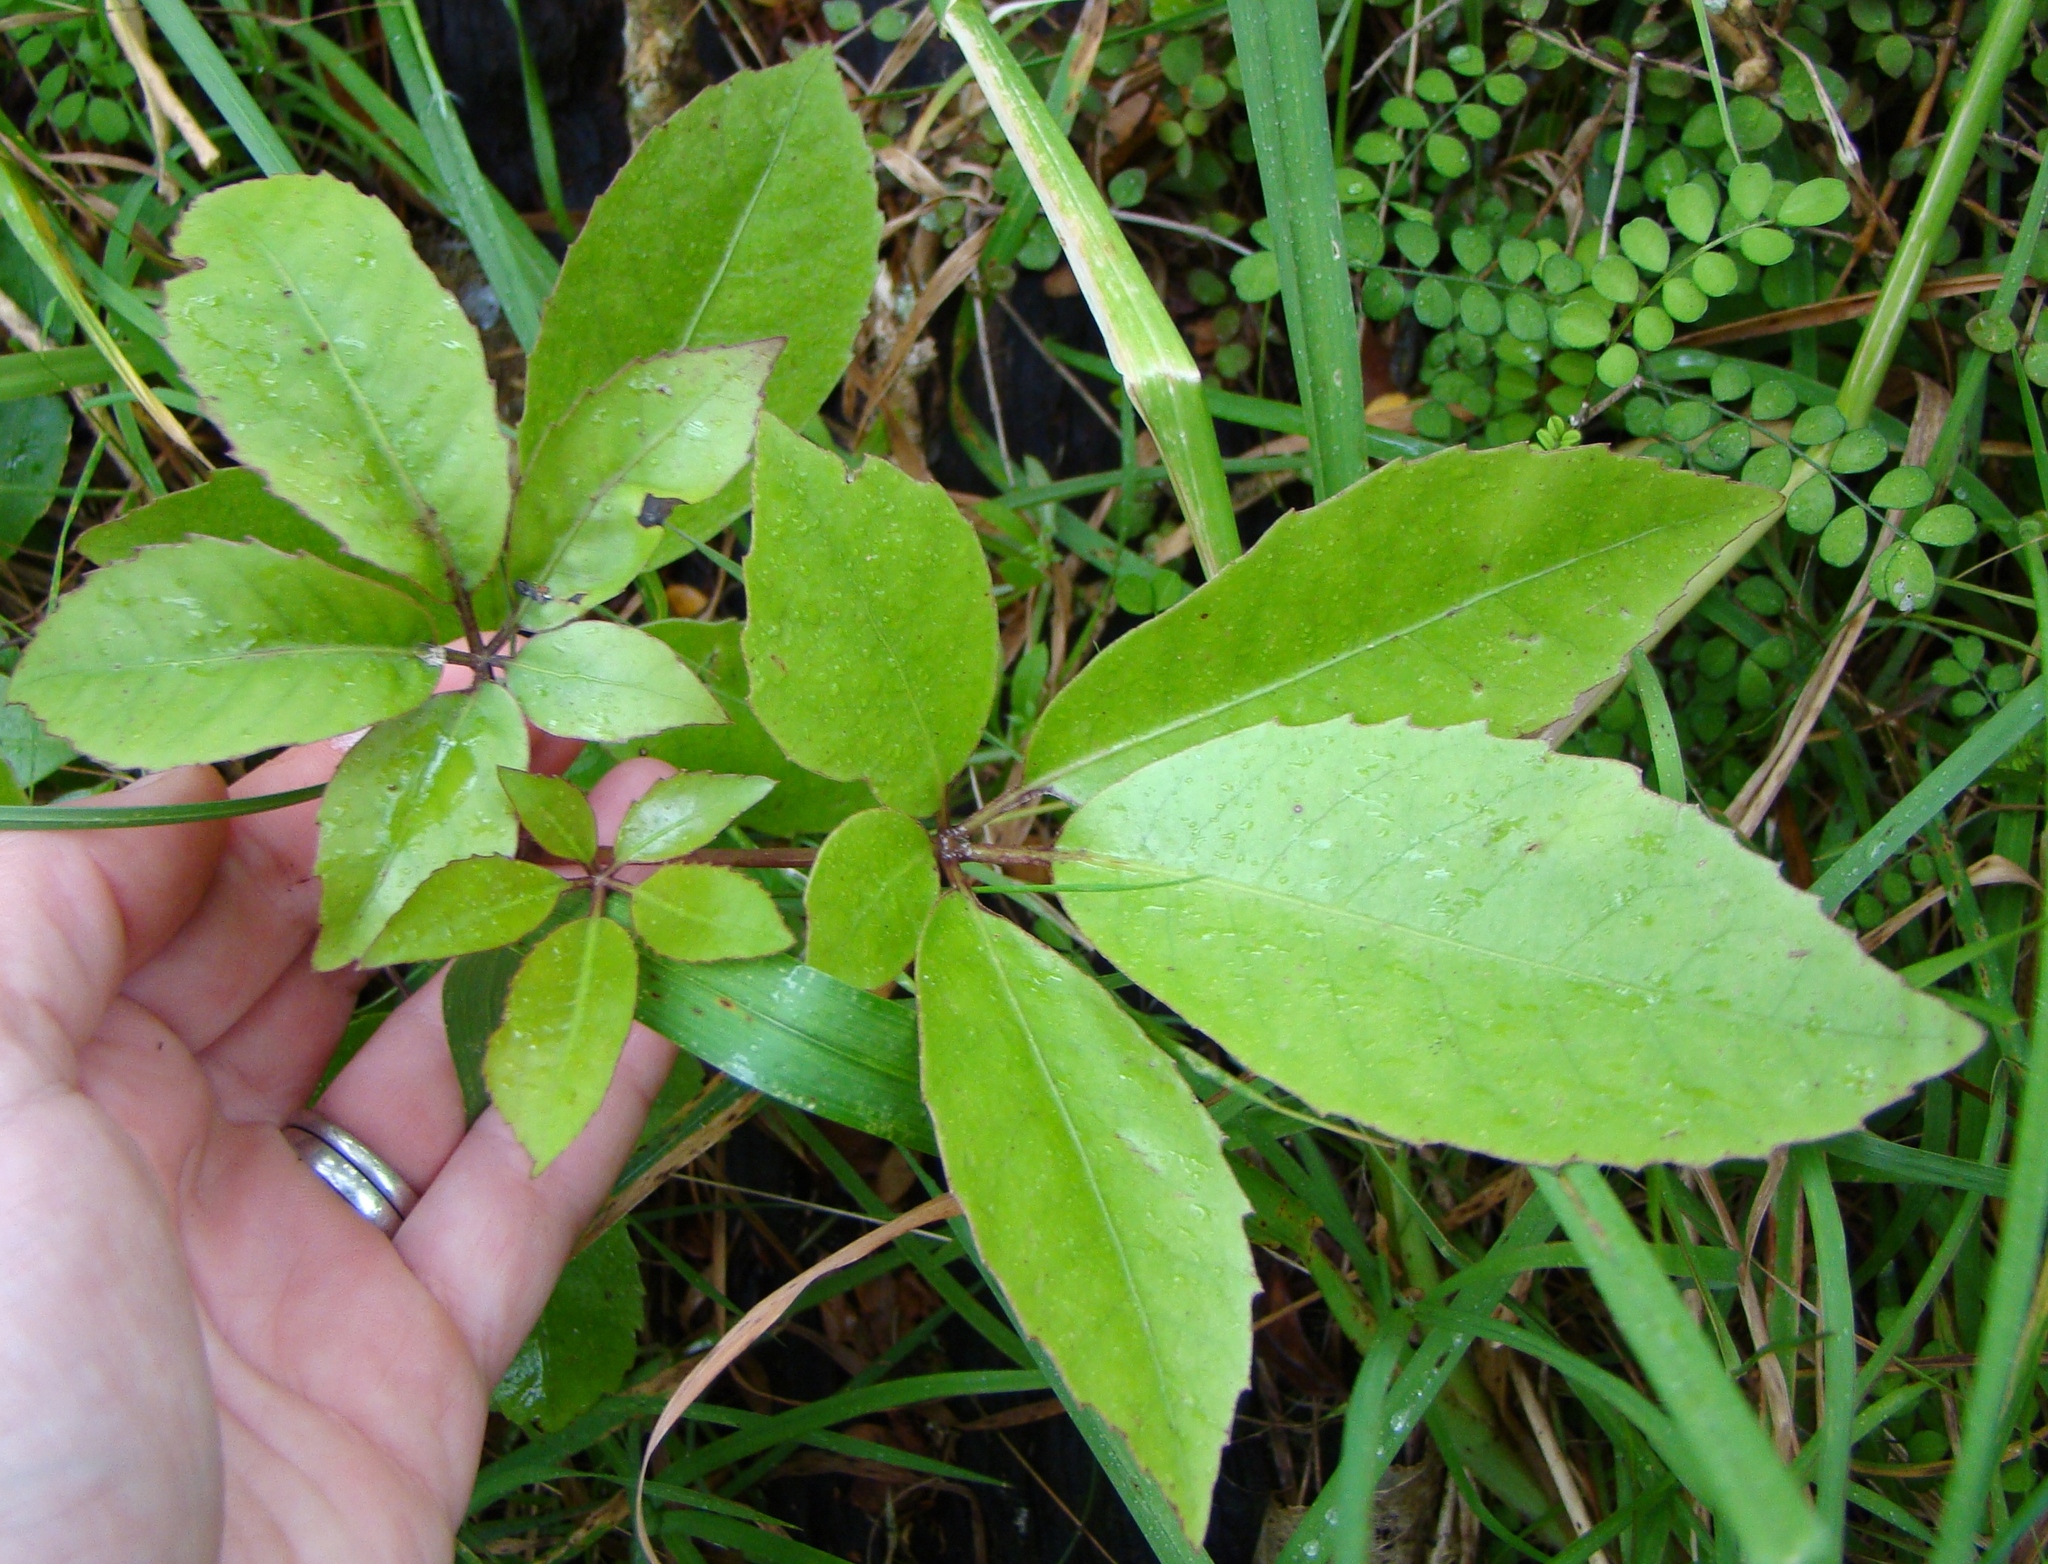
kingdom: Plantae
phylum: Tracheophyta
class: Magnoliopsida
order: Apiales
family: Araliaceae
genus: Neopanax
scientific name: Neopanax arboreus
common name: Five-fingers
